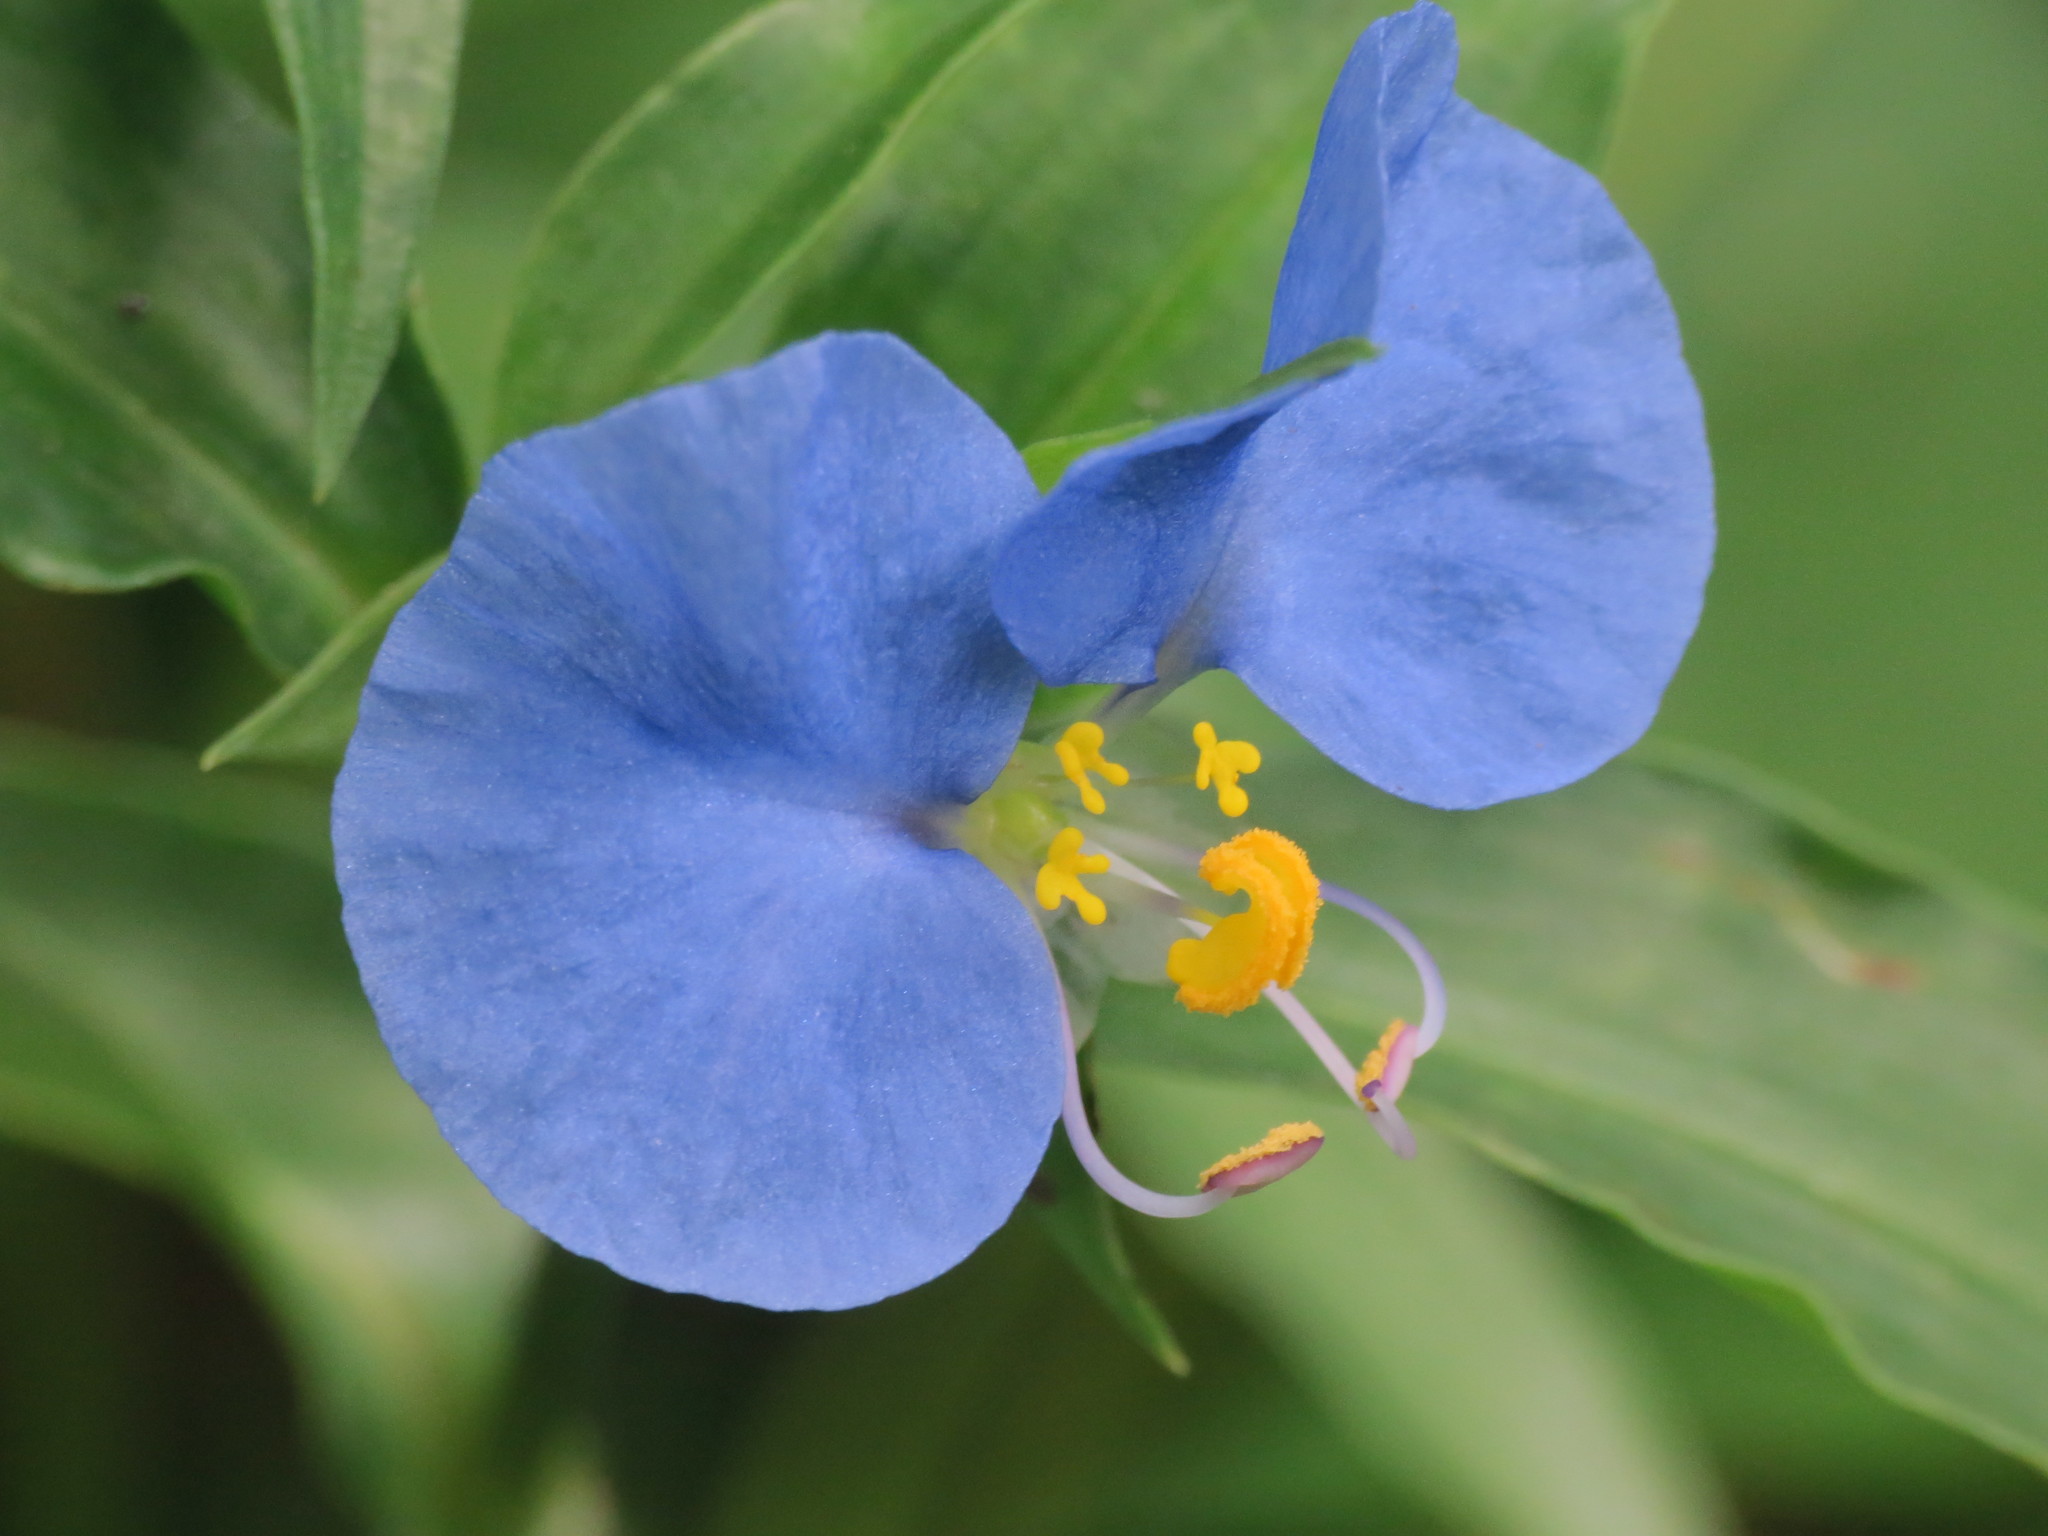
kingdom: Plantae
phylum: Tracheophyta
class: Liliopsida
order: Commelinales
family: Commelinaceae
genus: Commelina
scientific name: Commelina erecta
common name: Blousel blommetjie
